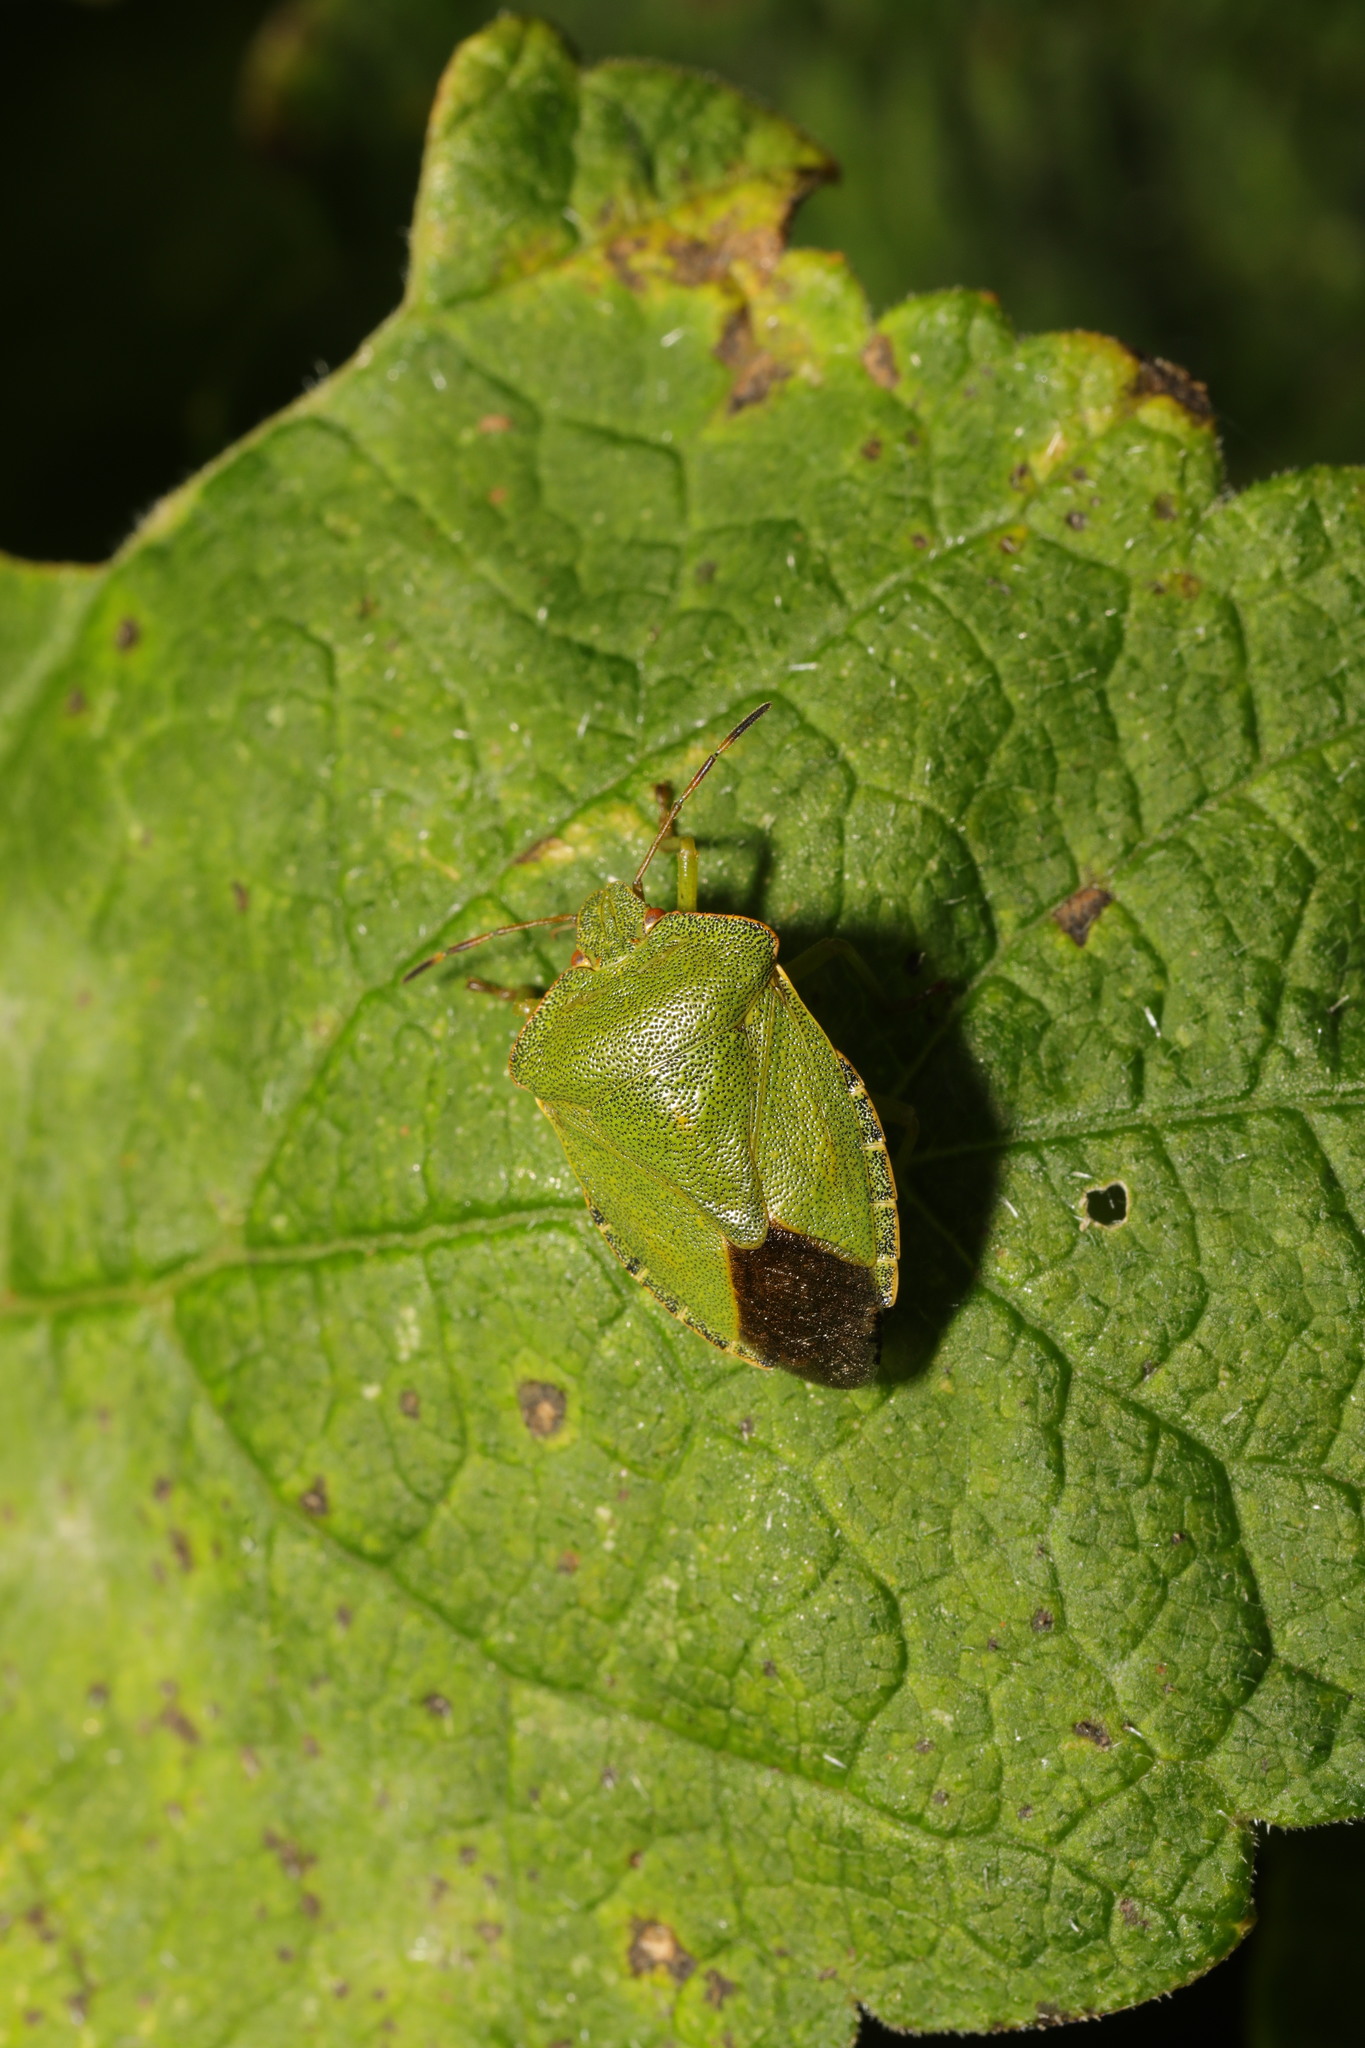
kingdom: Animalia
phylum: Arthropoda
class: Insecta
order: Hemiptera
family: Pentatomidae
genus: Palomena
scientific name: Palomena prasina
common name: Green shieldbug
